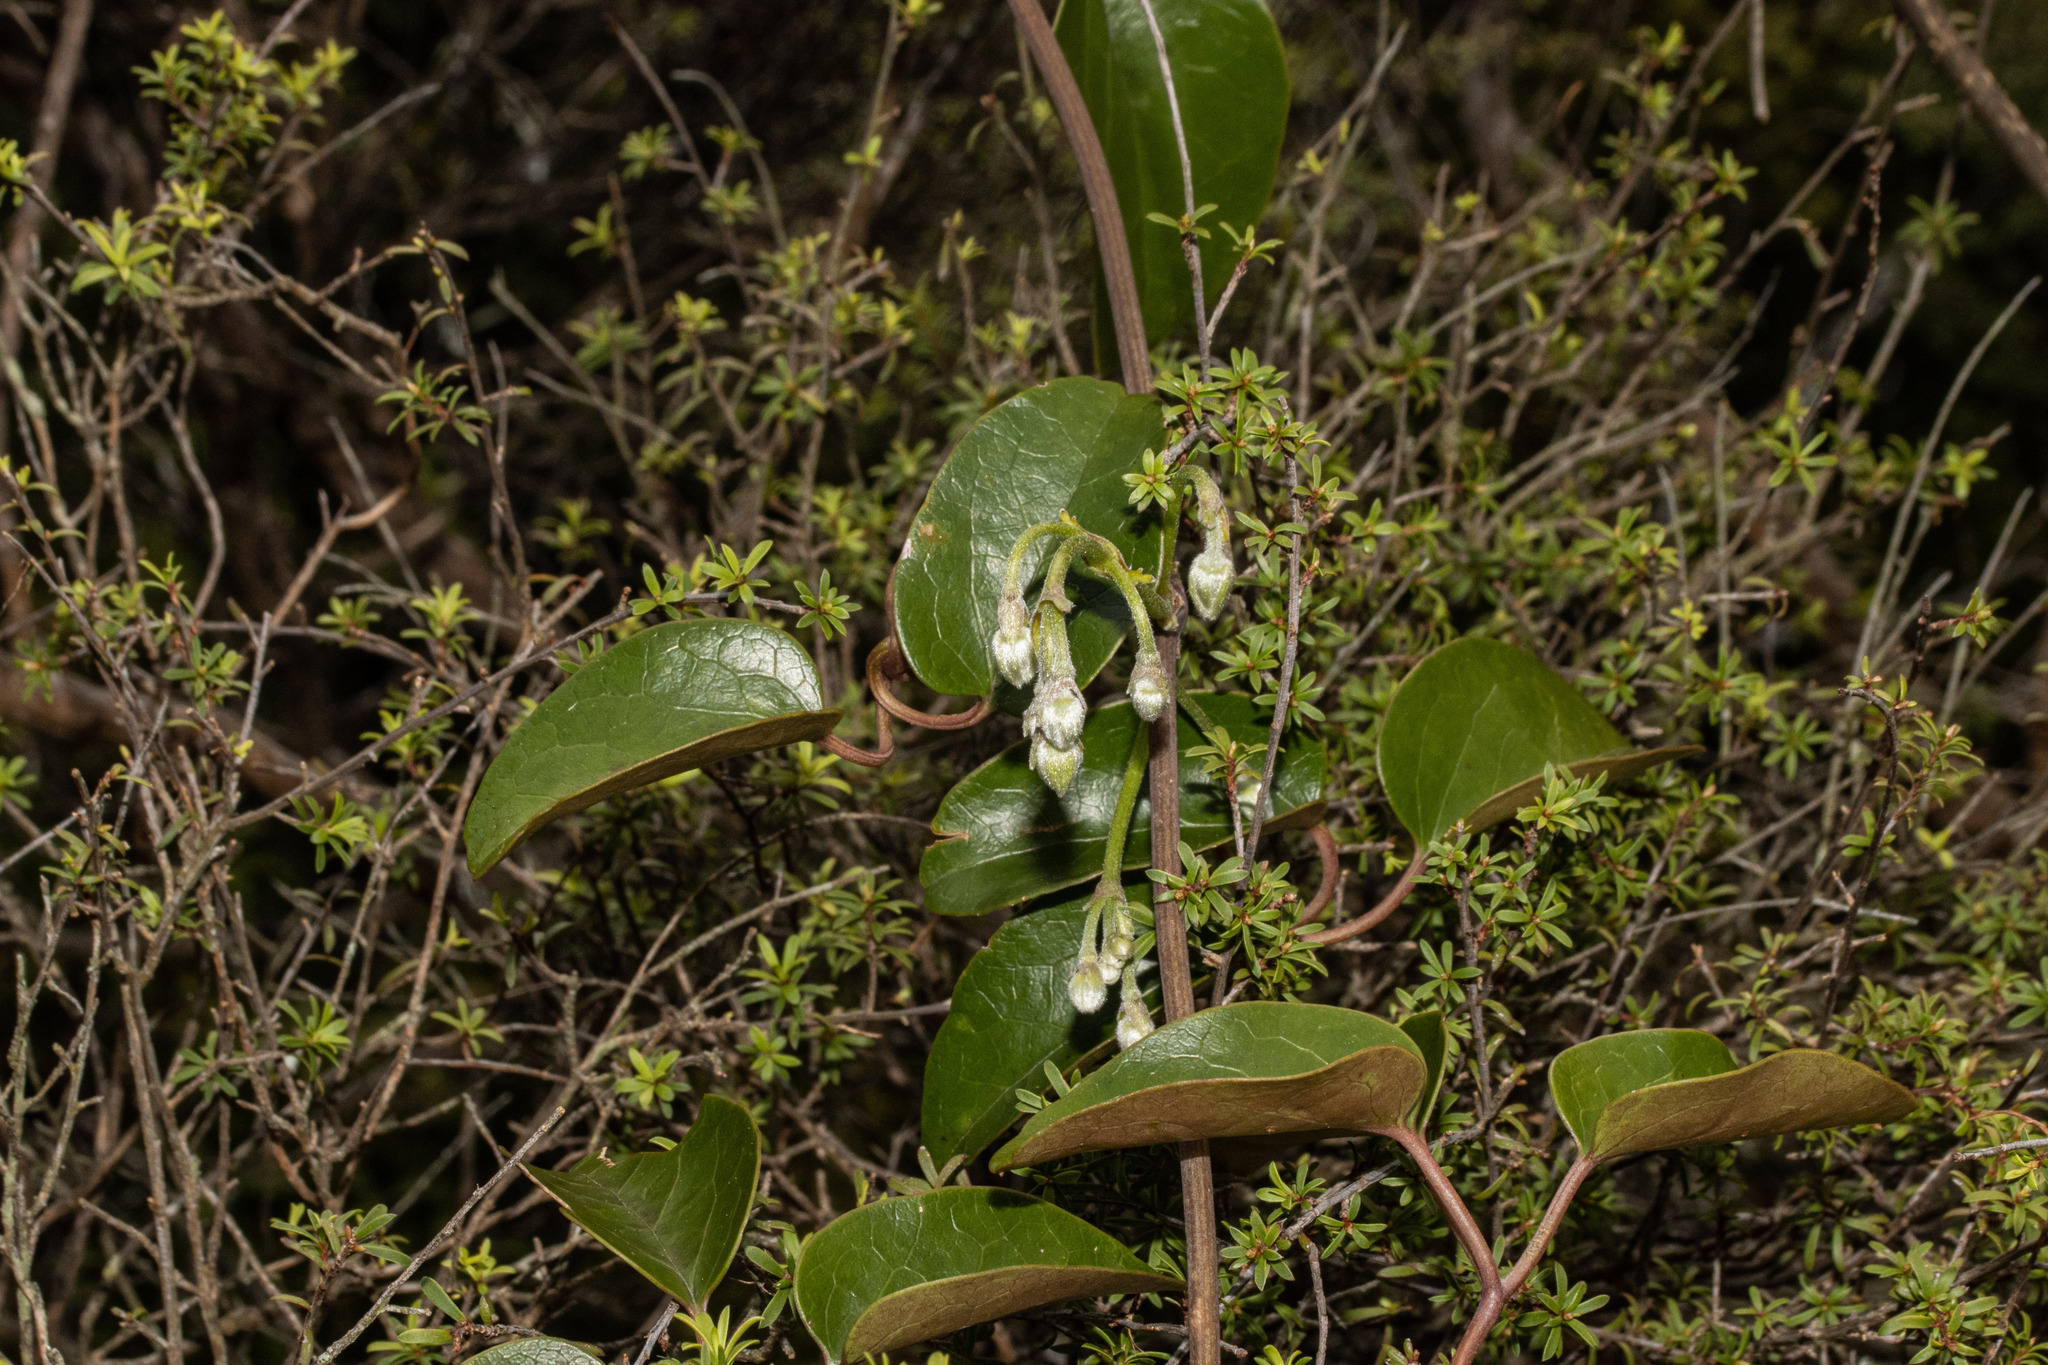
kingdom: Plantae
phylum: Tracheophyta
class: Magnoliopsida
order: Ranunculales
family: Ranunculaceae
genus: Clematis
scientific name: Clematis paniculata
